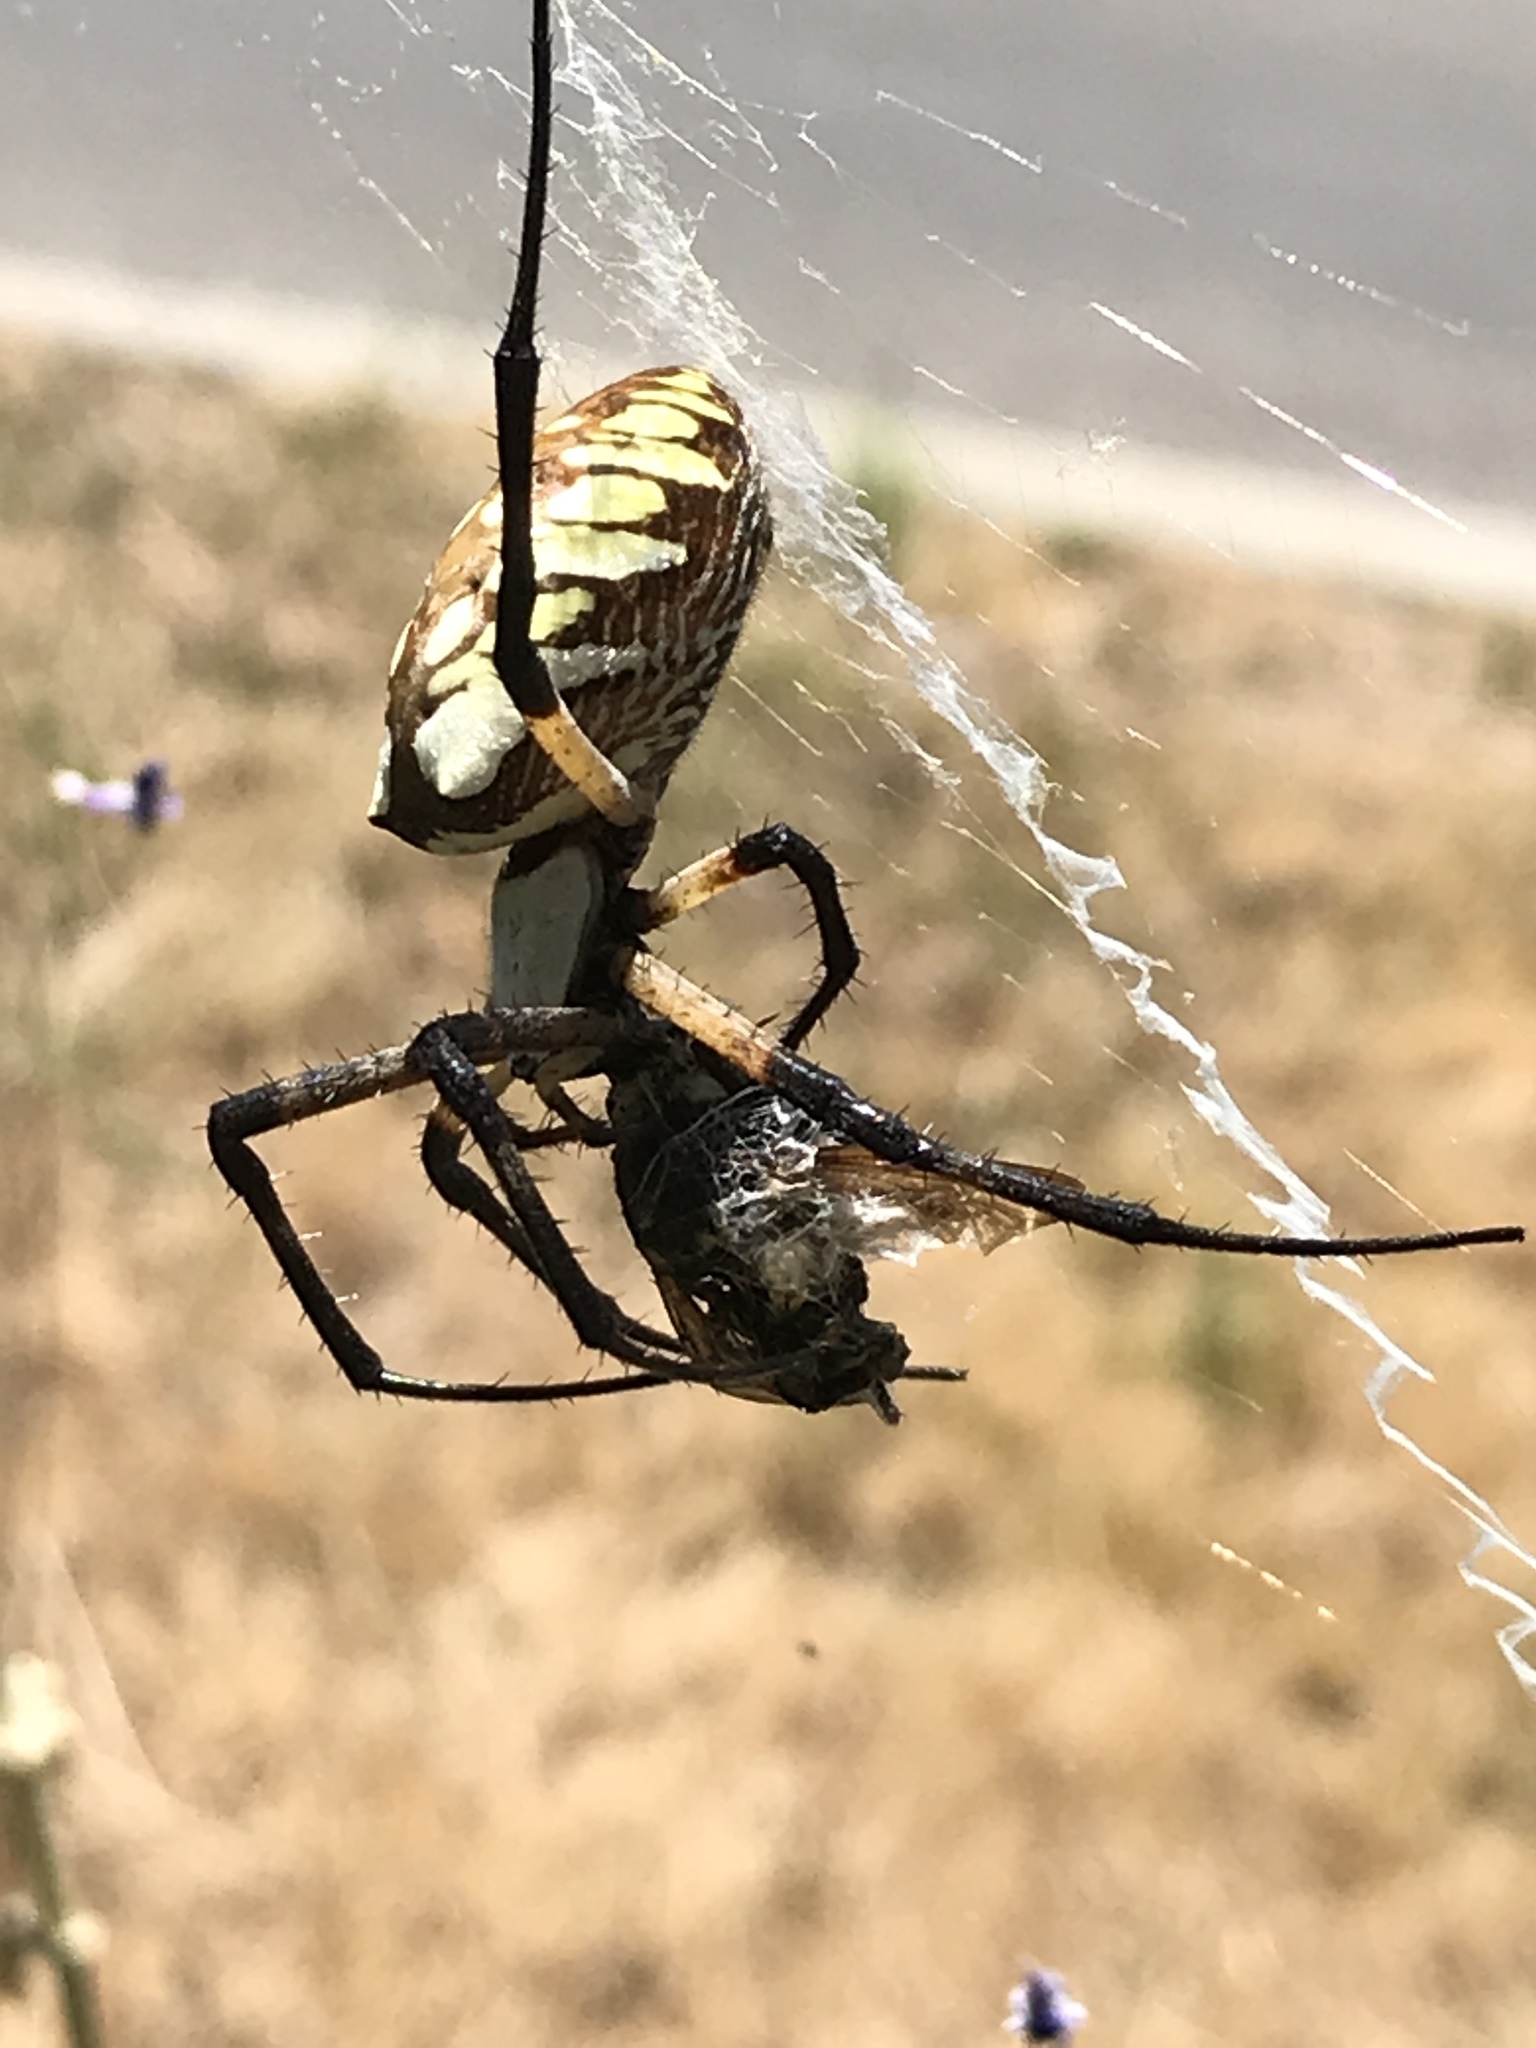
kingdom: Animalia
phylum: Arthropoda
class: Arachnida
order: Araneae
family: Araneidae
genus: Argiope
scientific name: Argiope aurantia
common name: Orb weavers
